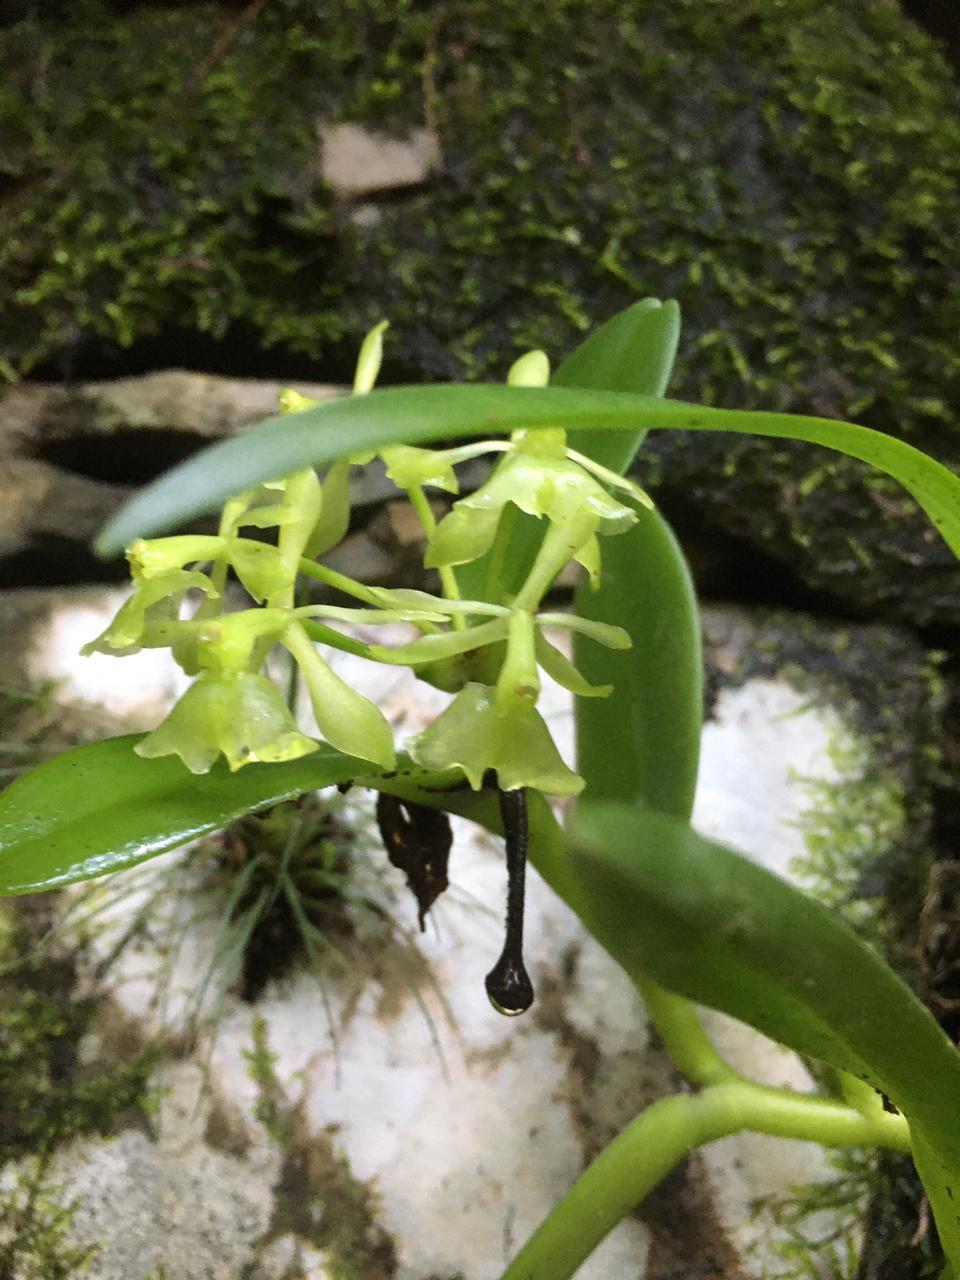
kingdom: Plantae
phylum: Tracheophyta
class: Liliopsida
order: Asparagales
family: Orchidaceae
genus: Epidendrum
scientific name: Epidendrum chlorocorymbos
